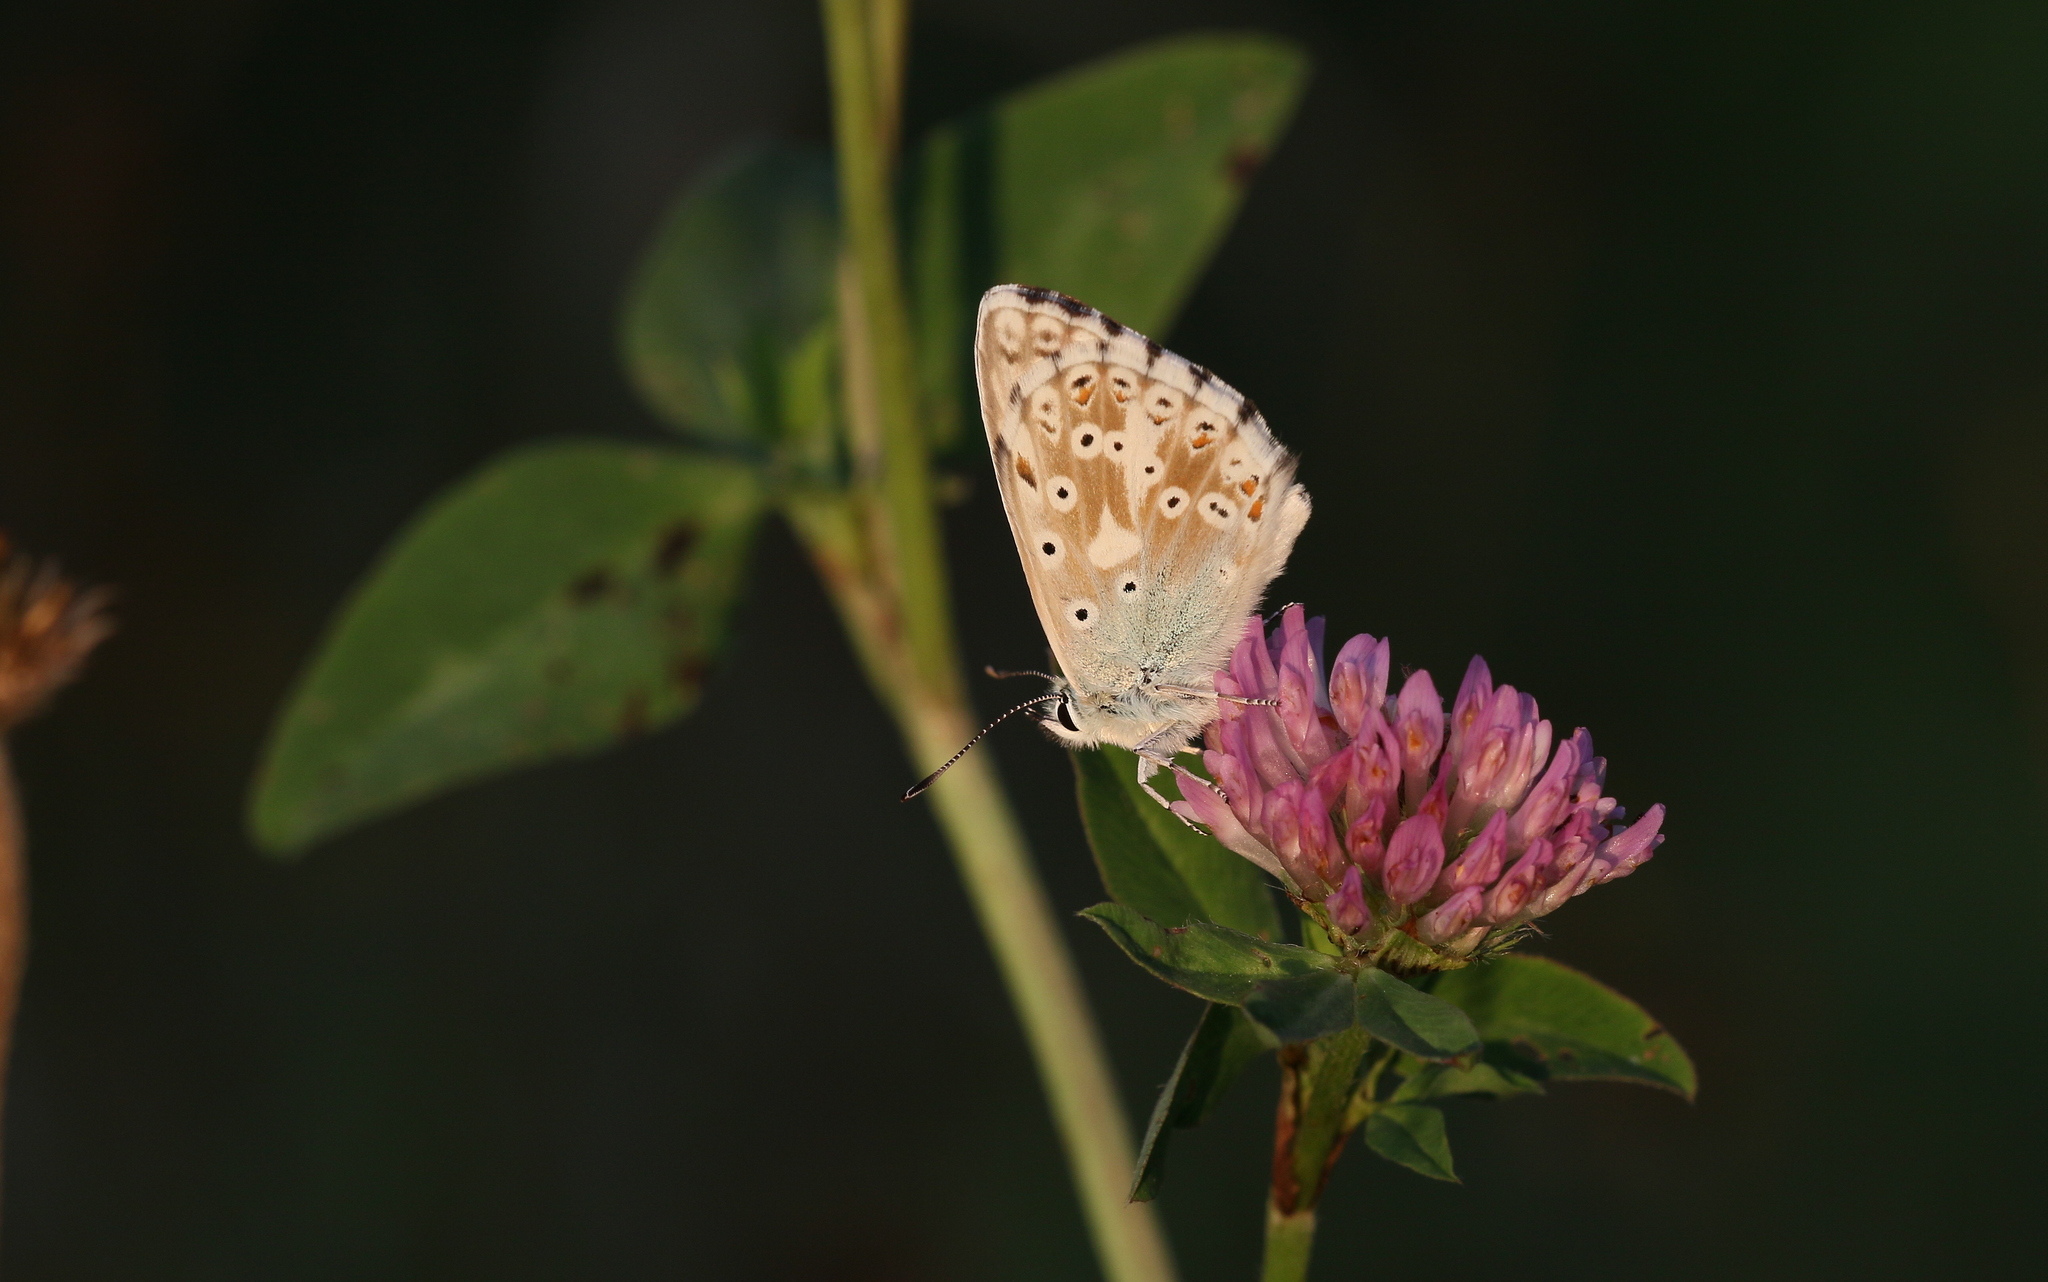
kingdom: Animalia
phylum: Arthropoda
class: Insecta
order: Lepidoptera
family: Lycaenidae
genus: Lysandra
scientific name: Lysandra coridon
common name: Chalkhill blue
